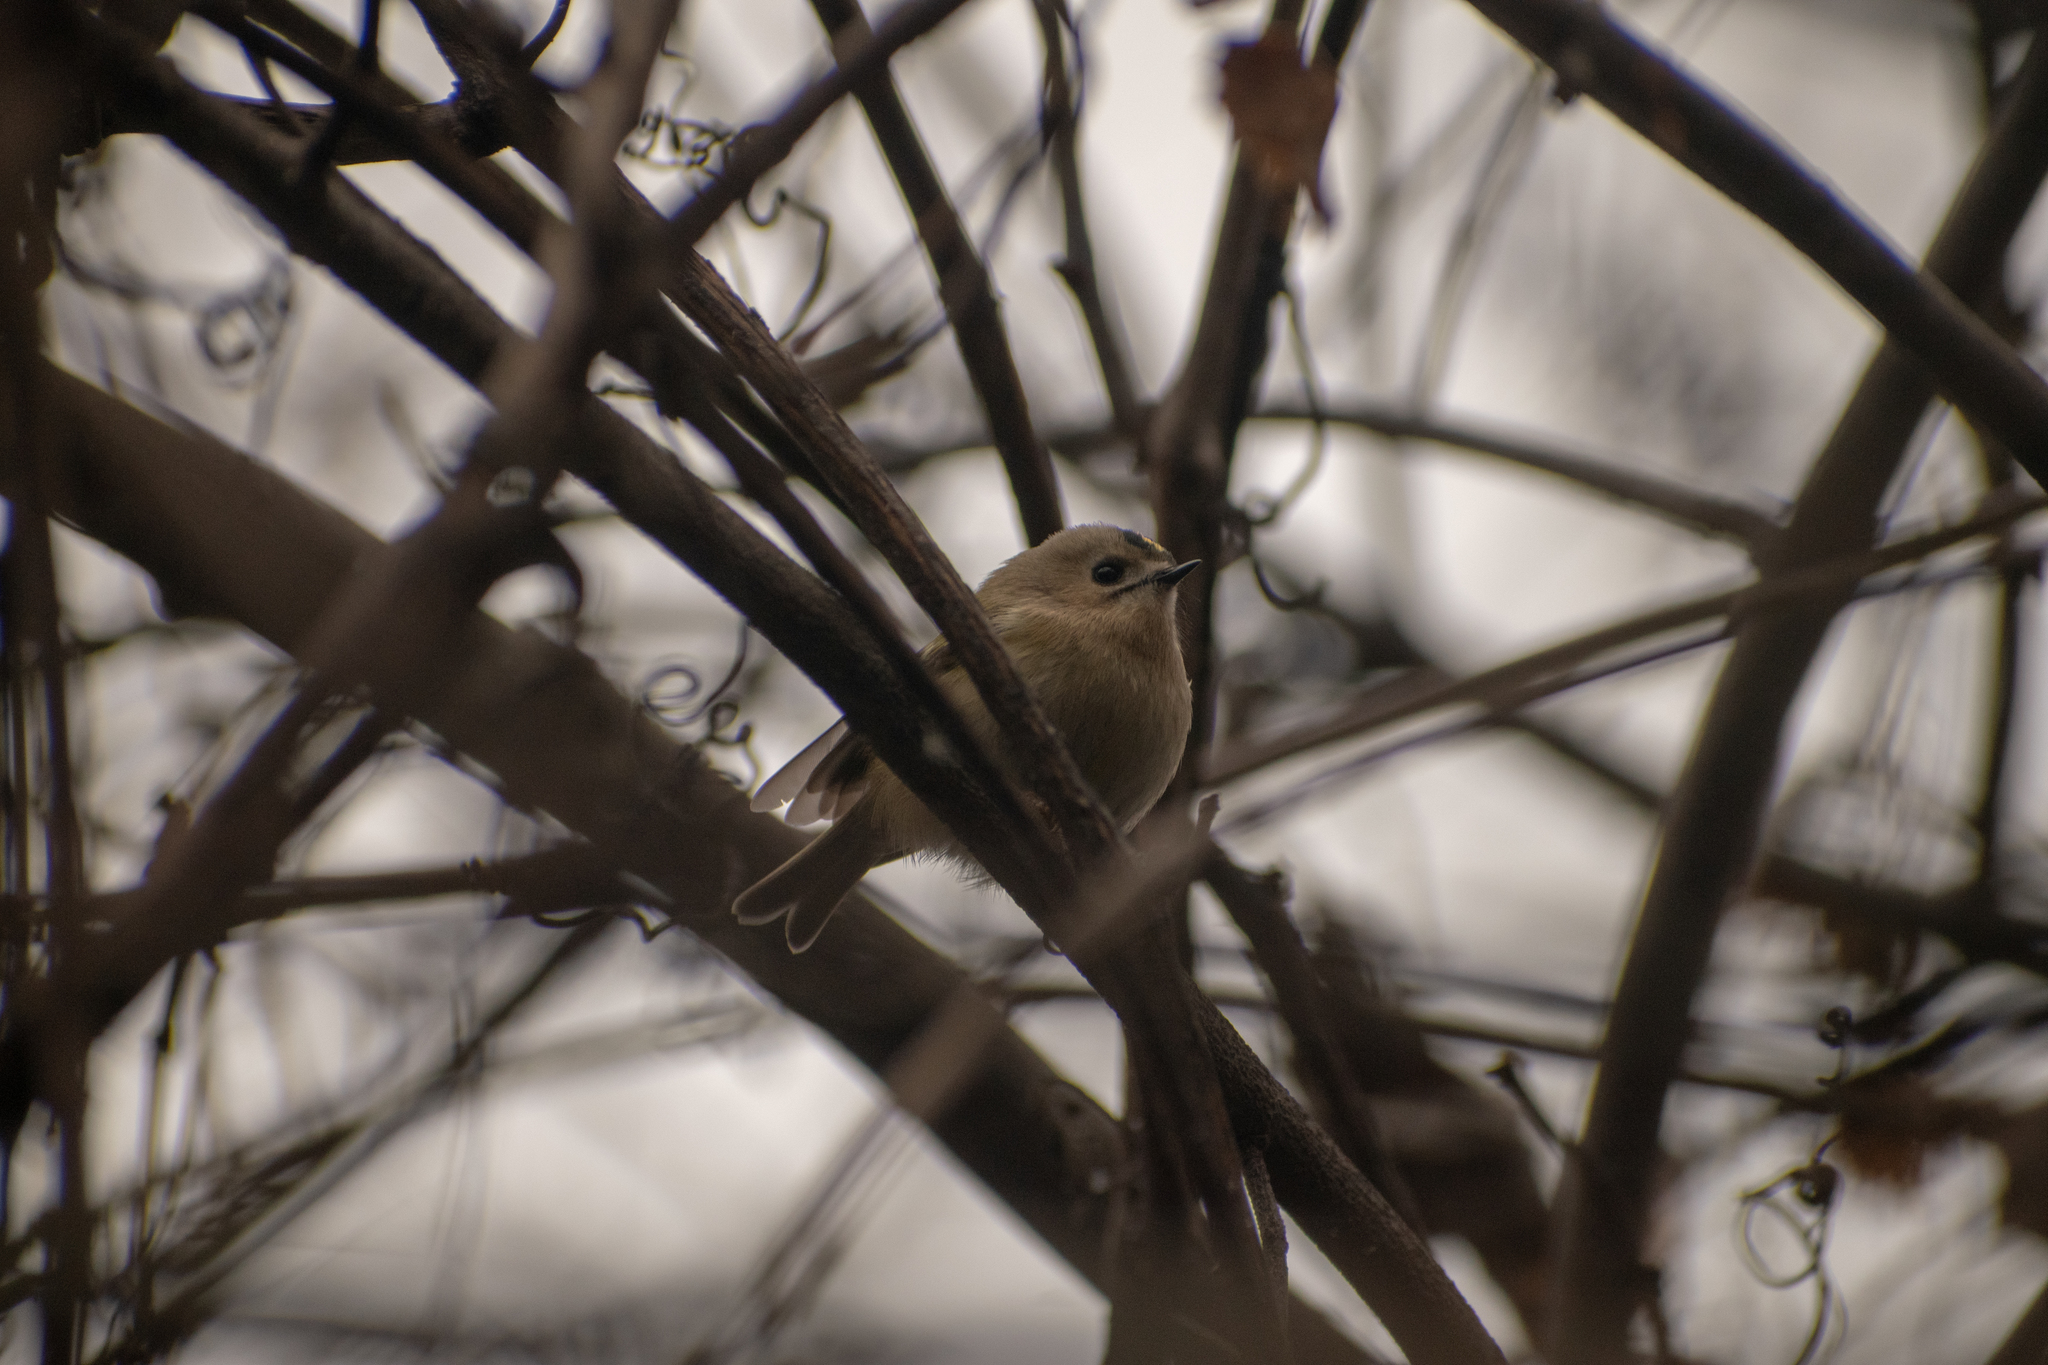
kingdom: Animalia
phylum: Chordata
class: Aves
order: Passeriformes
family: Regulidae
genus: Regulus
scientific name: Regulus regulus
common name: Goldcrest
